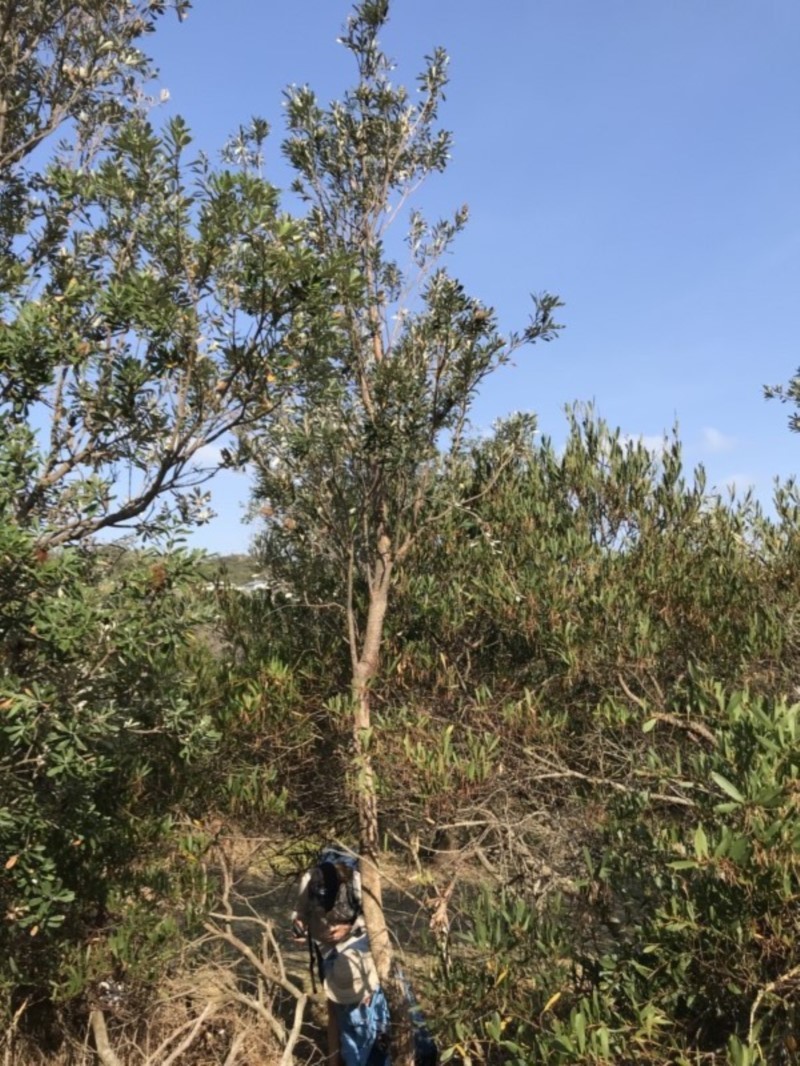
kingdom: Plantae
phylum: Tracheophyta
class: Magnoliopsida
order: Proteales
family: Proteaceae
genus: Banksia
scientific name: Banksia integrifolia
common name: White-honeysuckle
